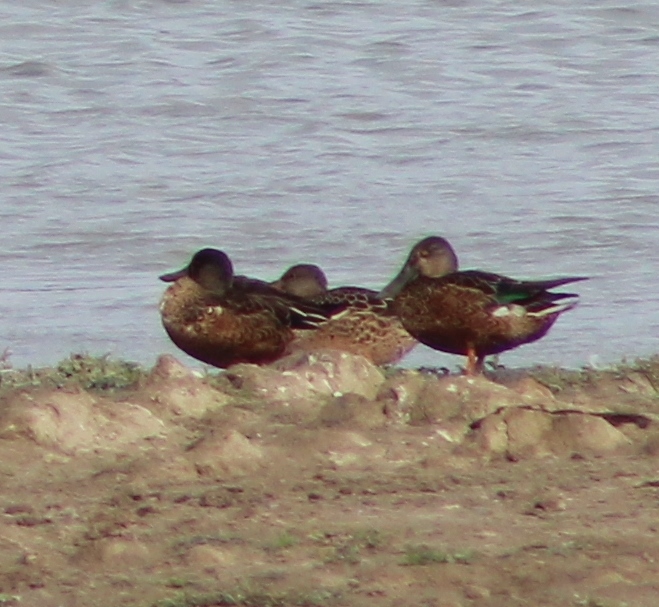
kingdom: Animalia
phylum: Chordata
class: Aves
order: Anseriformes
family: Anatidae
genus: Spatula
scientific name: Spatula clypeata
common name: Northern shoveler
